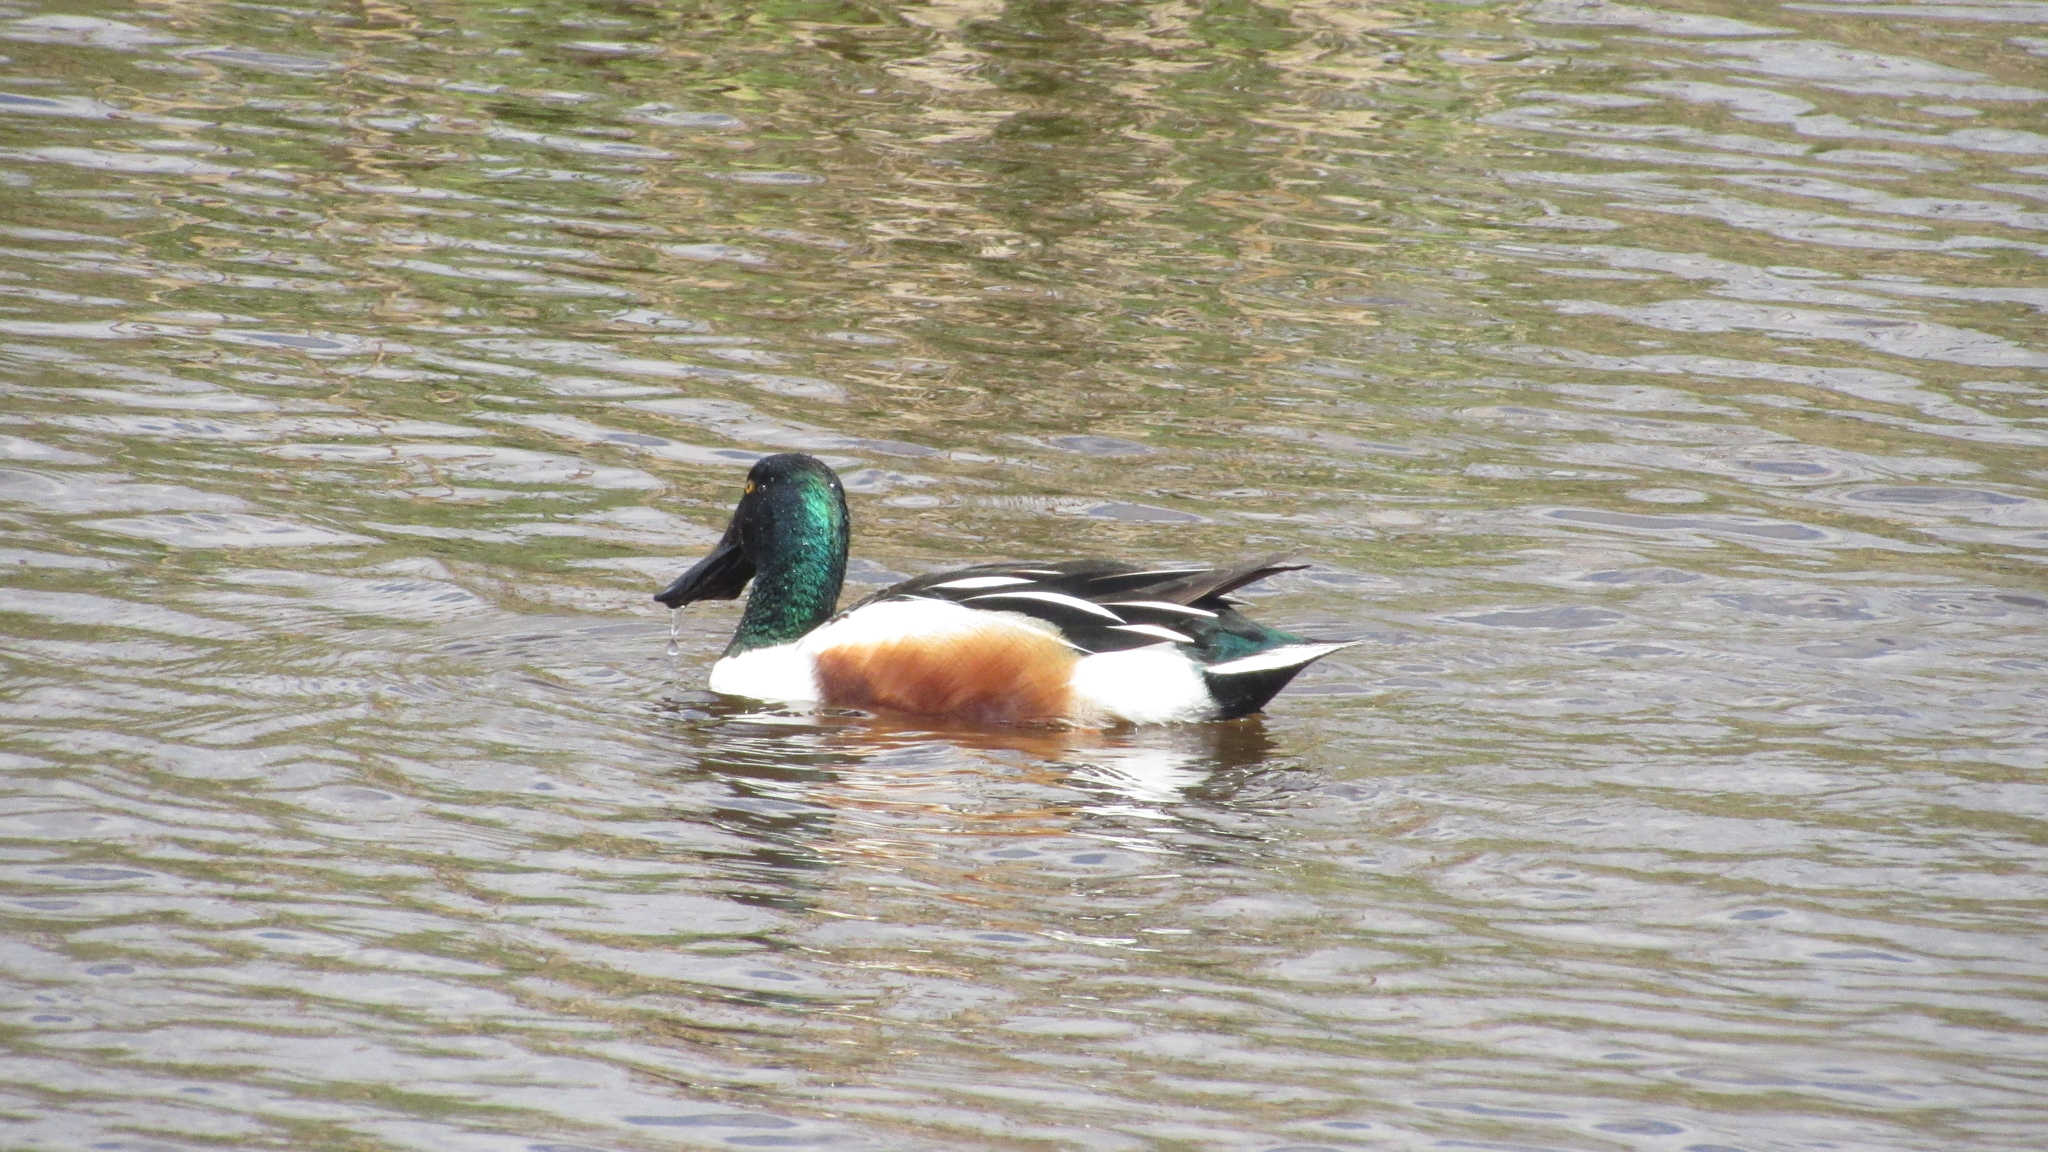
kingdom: Animalia
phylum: Chordata
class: Aves
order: Anseriformes
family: Anatidae
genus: Spatula
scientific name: Spatula clypeata
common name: Northern shoveler
